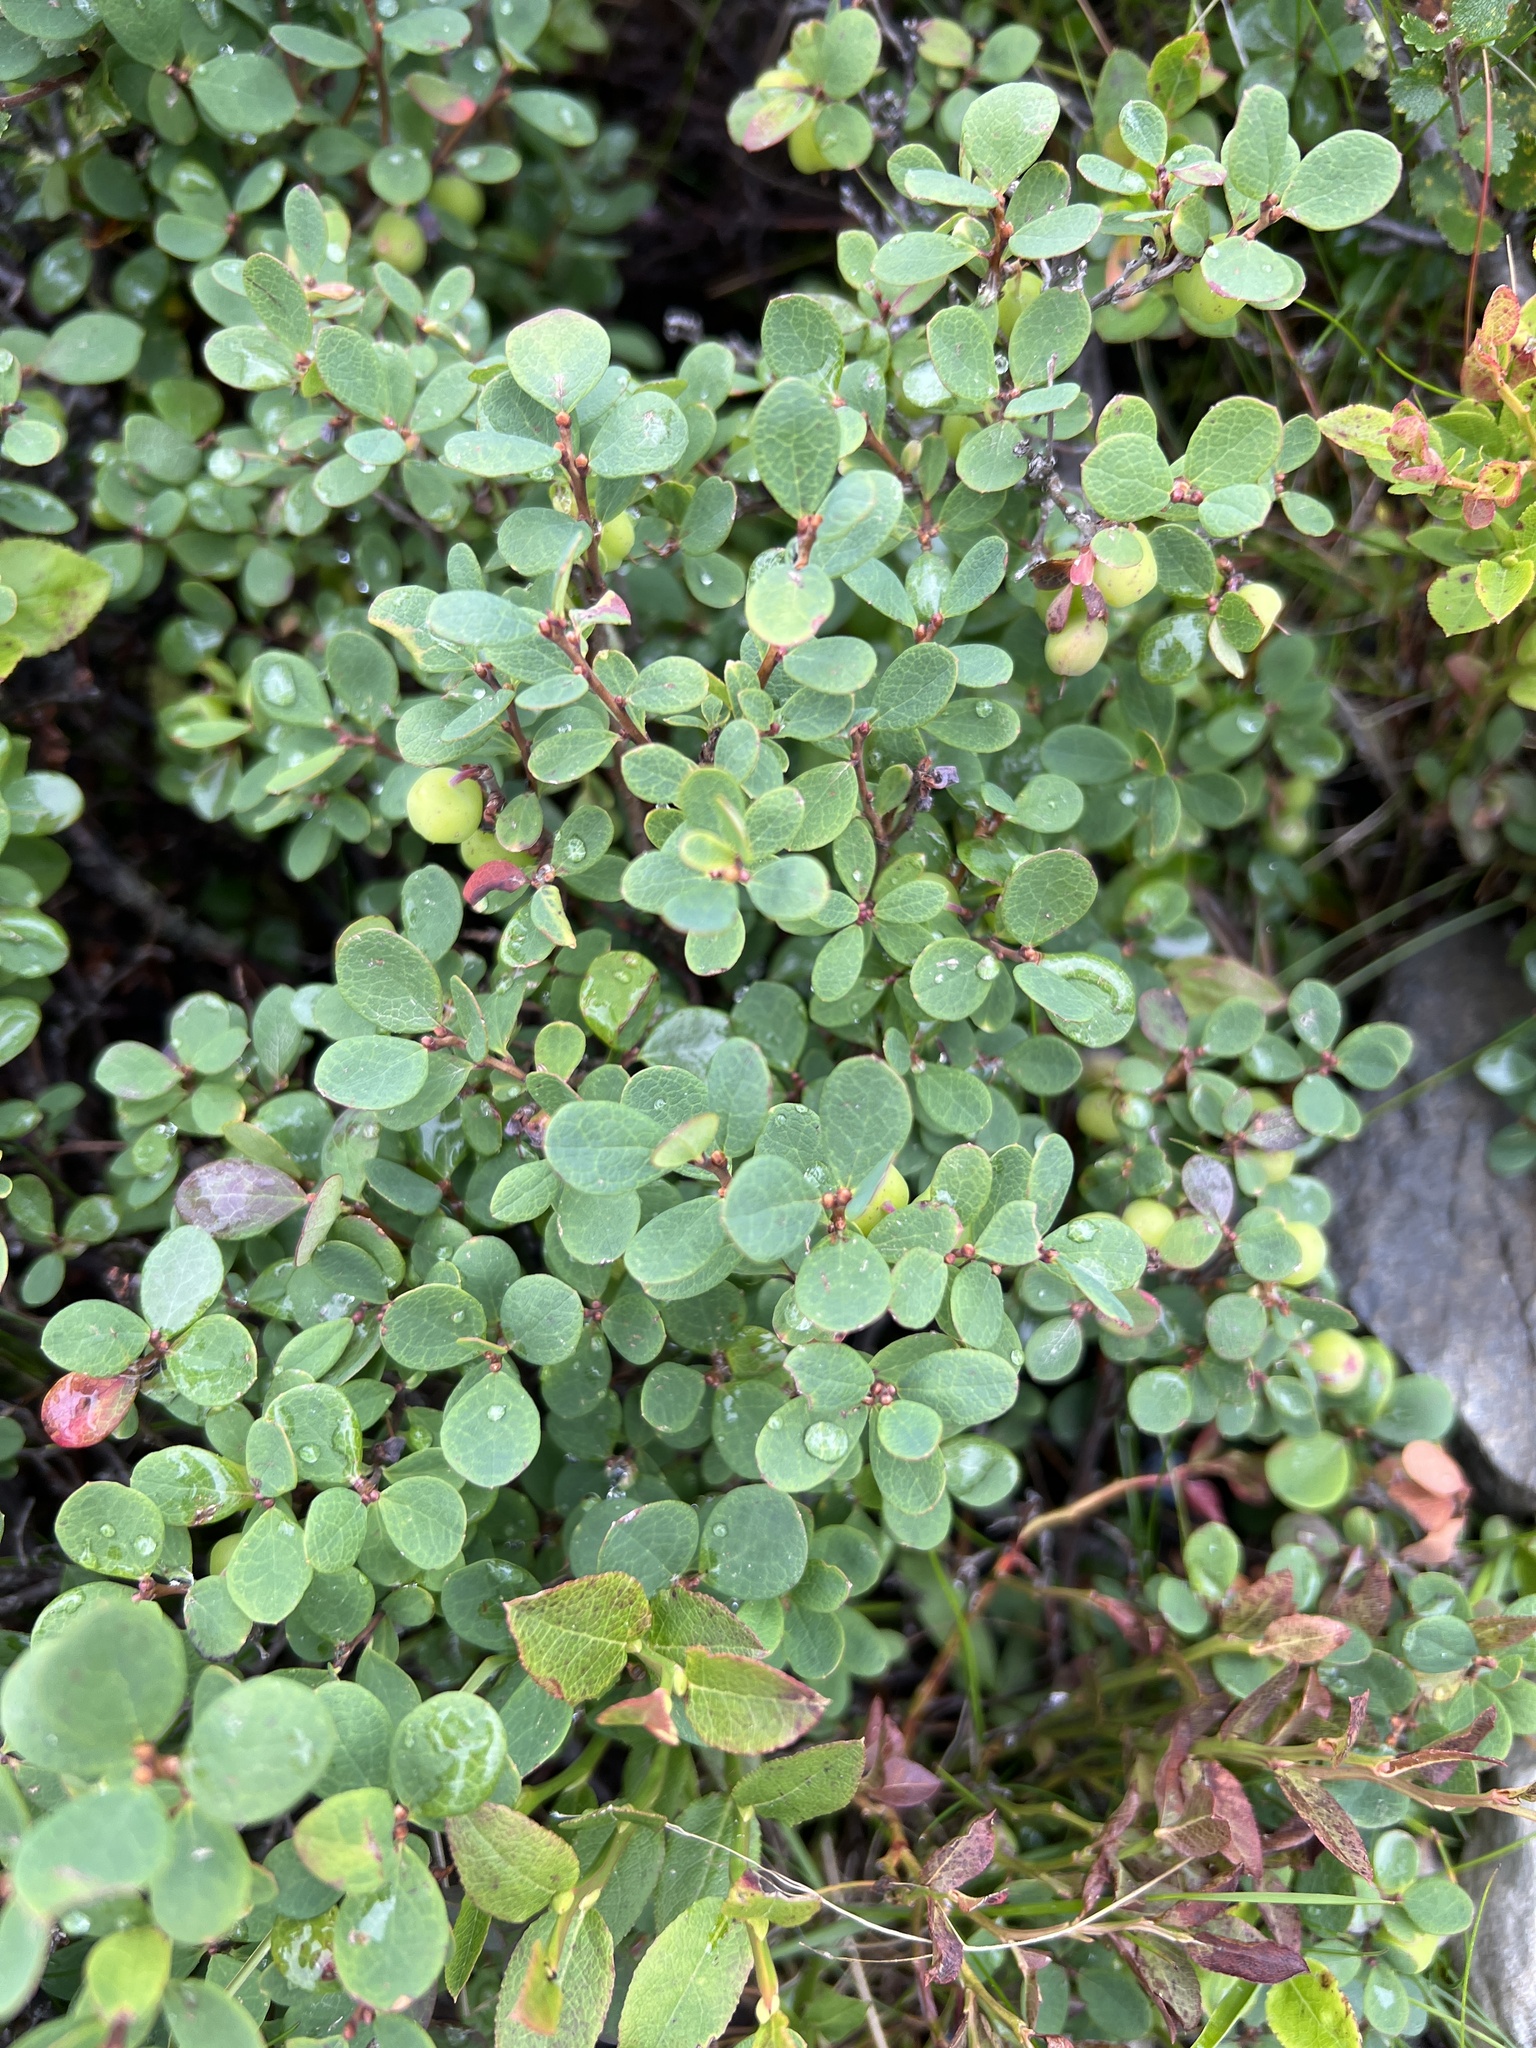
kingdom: Plantae
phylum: Tracheophyta
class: Magnoliopsida
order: Ericales
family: Ericaceae
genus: Vaccinium
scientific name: Vaccinium uliginosum
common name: Bog bilberry
